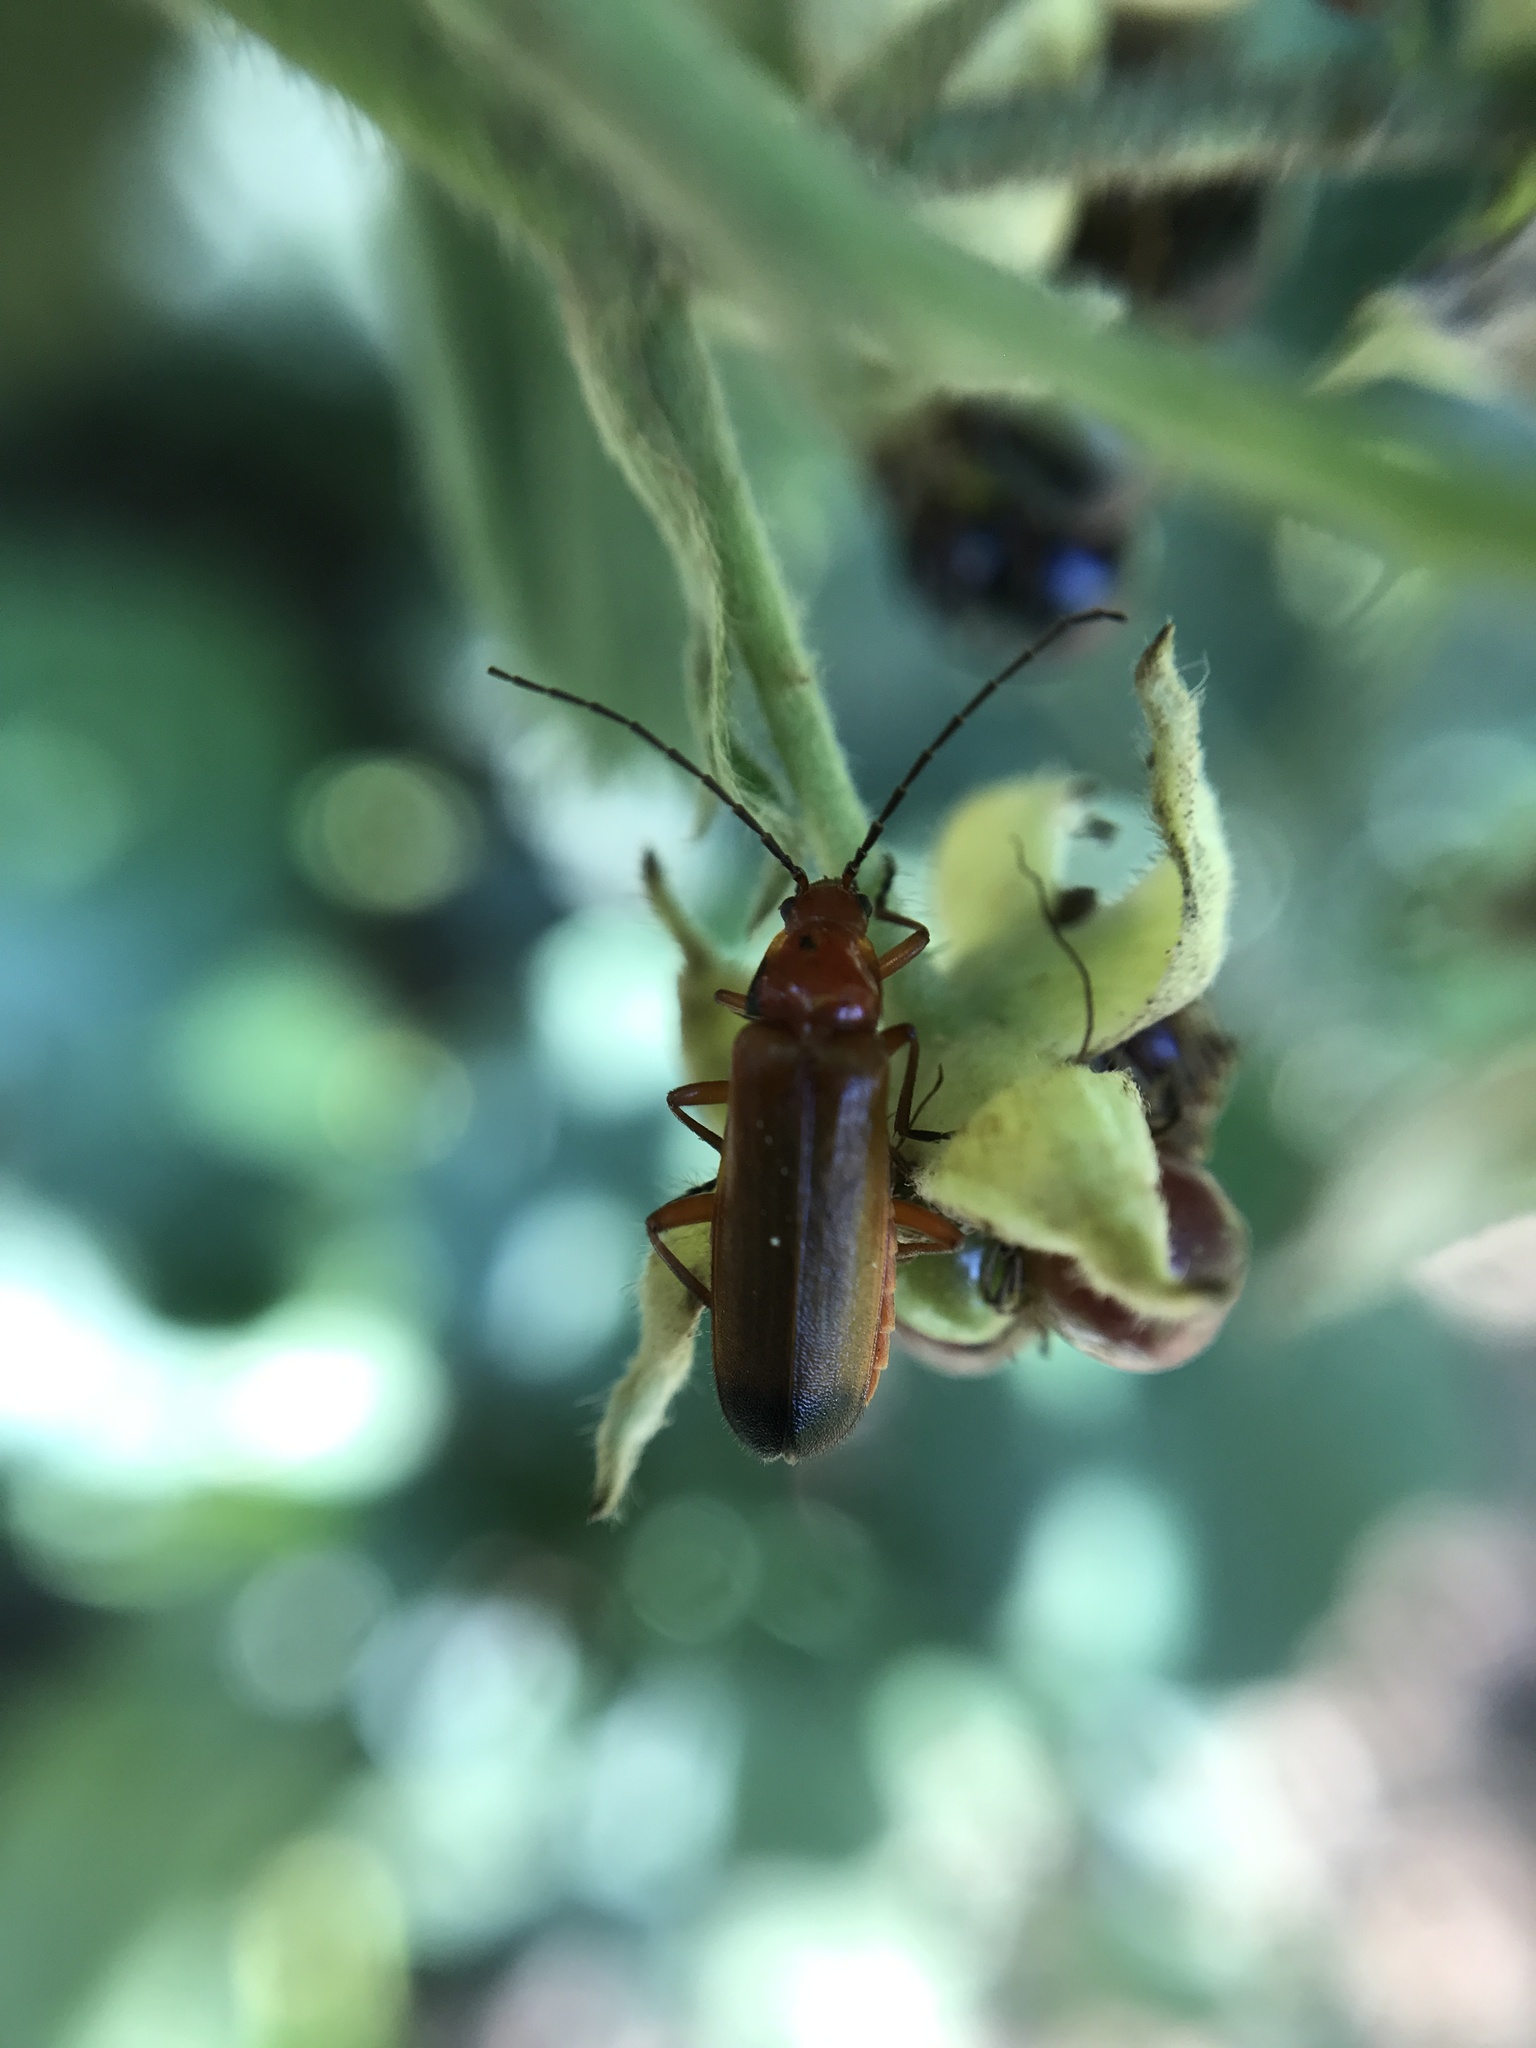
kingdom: Animalia
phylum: Arthropoda
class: Insecta
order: Coleoptera
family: Cantharidae
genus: Rhagonycha
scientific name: Rhagonycha fulva
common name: Common red soldier beetle
